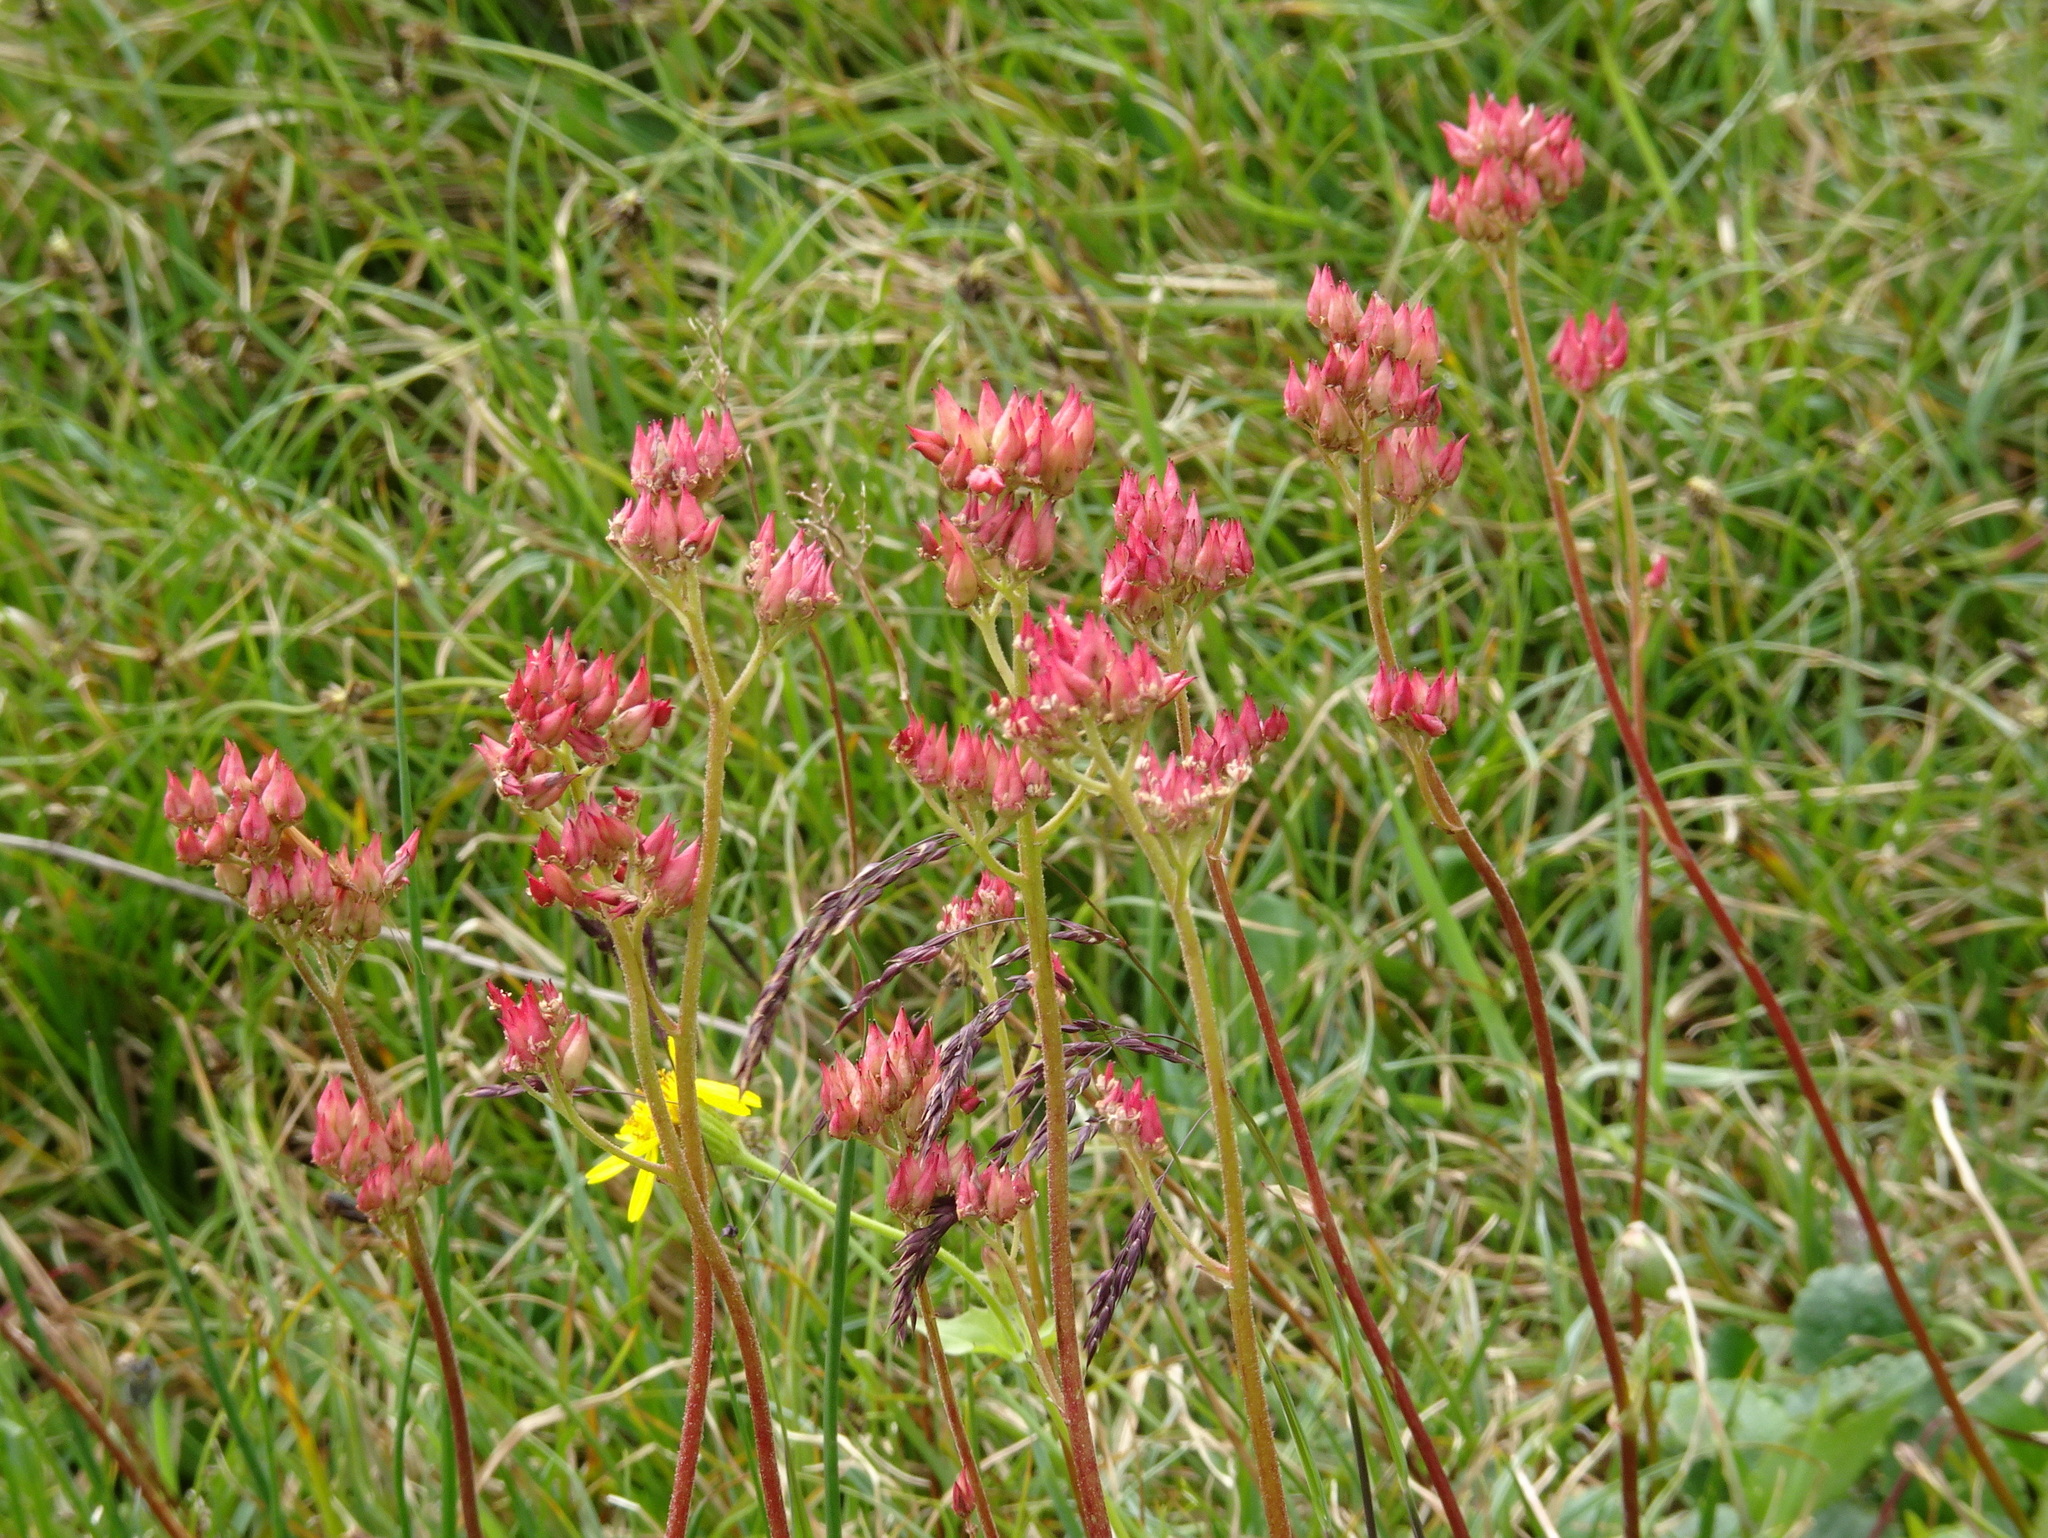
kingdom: Plantae
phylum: Tracheophyta
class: Magnoliopsida
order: Saxifragales
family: Saxifragaceae
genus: Leptarrhena
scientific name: Leptarrhena pyrolifolia
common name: Leatherleaf-saxifrage
